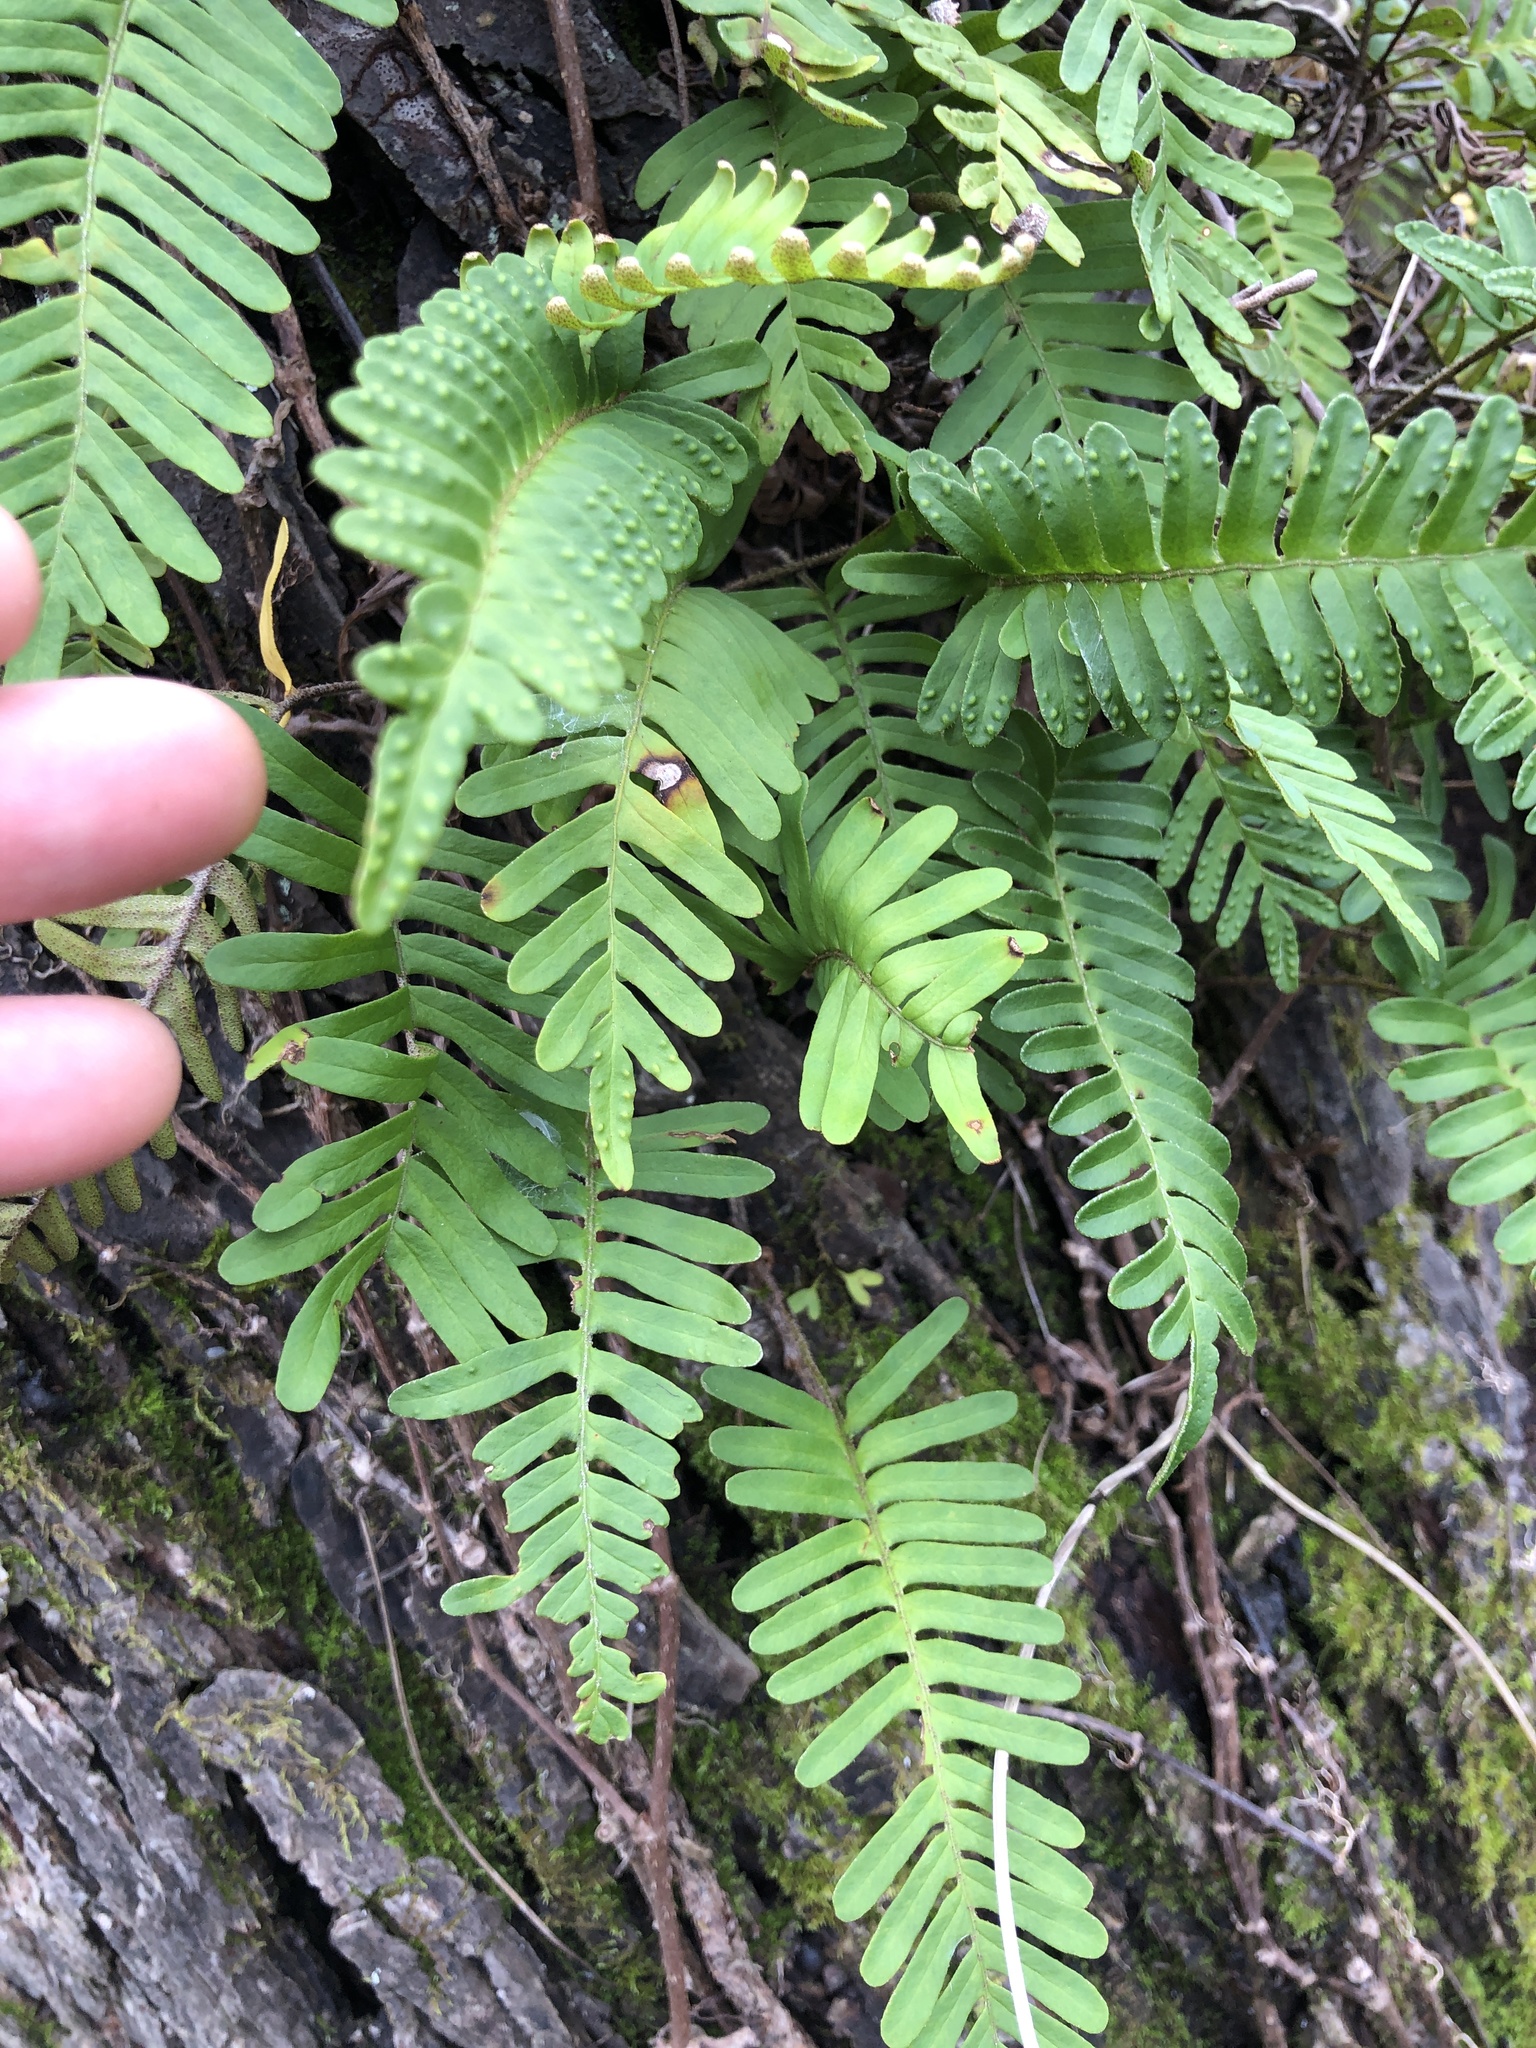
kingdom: Plantae
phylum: Tracheophyta
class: Polypodiopsida
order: Polypodiales
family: Polypodiaceae
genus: Pleopeltis
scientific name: Pleopeltis michauxiana
